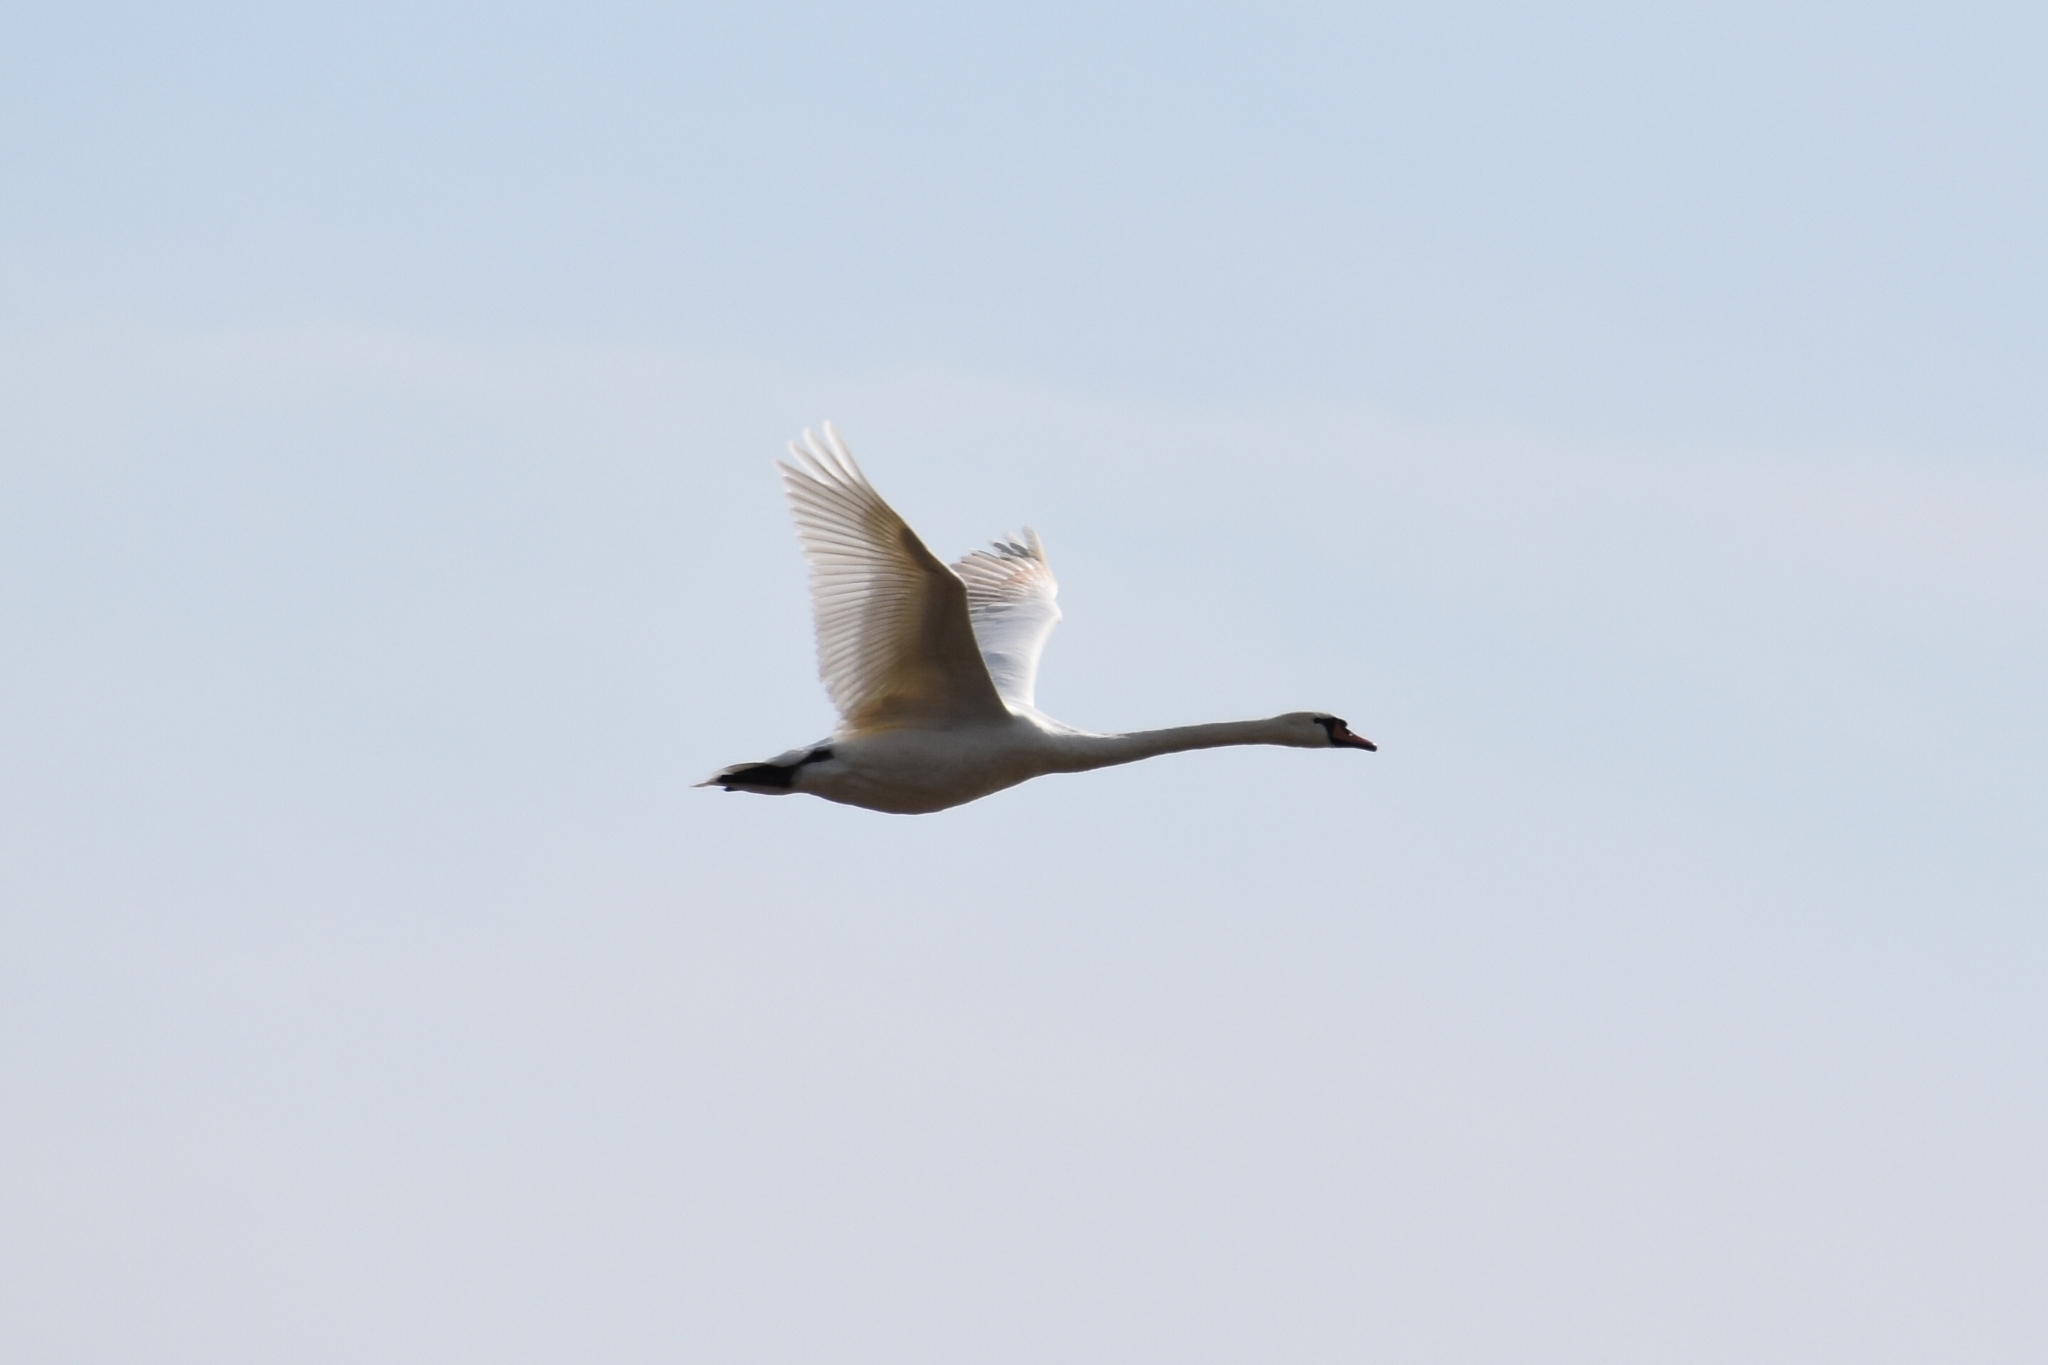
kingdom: Animalia
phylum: Chordata
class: Aves
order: Anseriformes
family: Anatidae
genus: Cygnus
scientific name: Cygnus olor
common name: Mute swan
